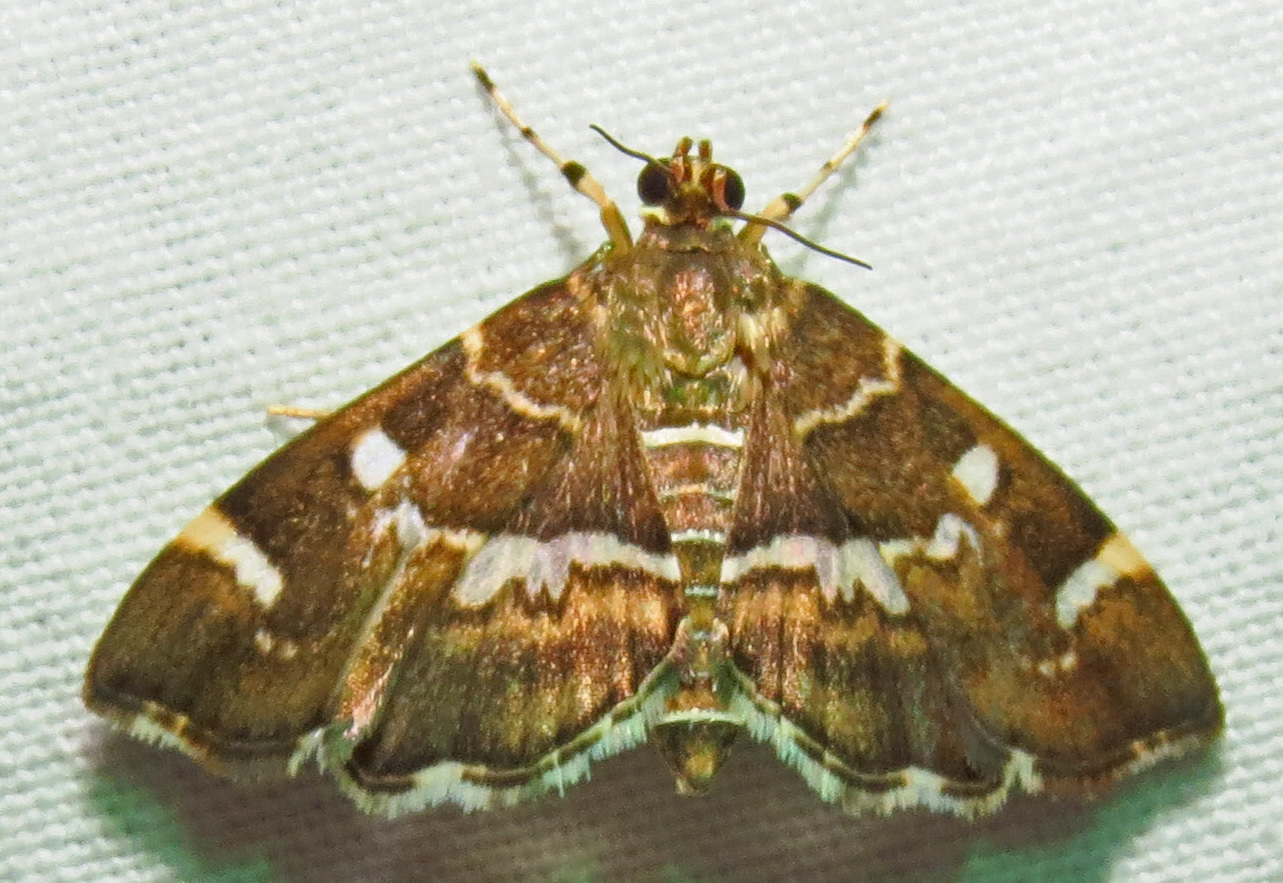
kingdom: Animalia
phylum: Arthropoda
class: Insecta
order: Lepidoptera
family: Crambidae
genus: Hymenia
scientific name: Hymenia perspectalis
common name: Spotted beet webworm
